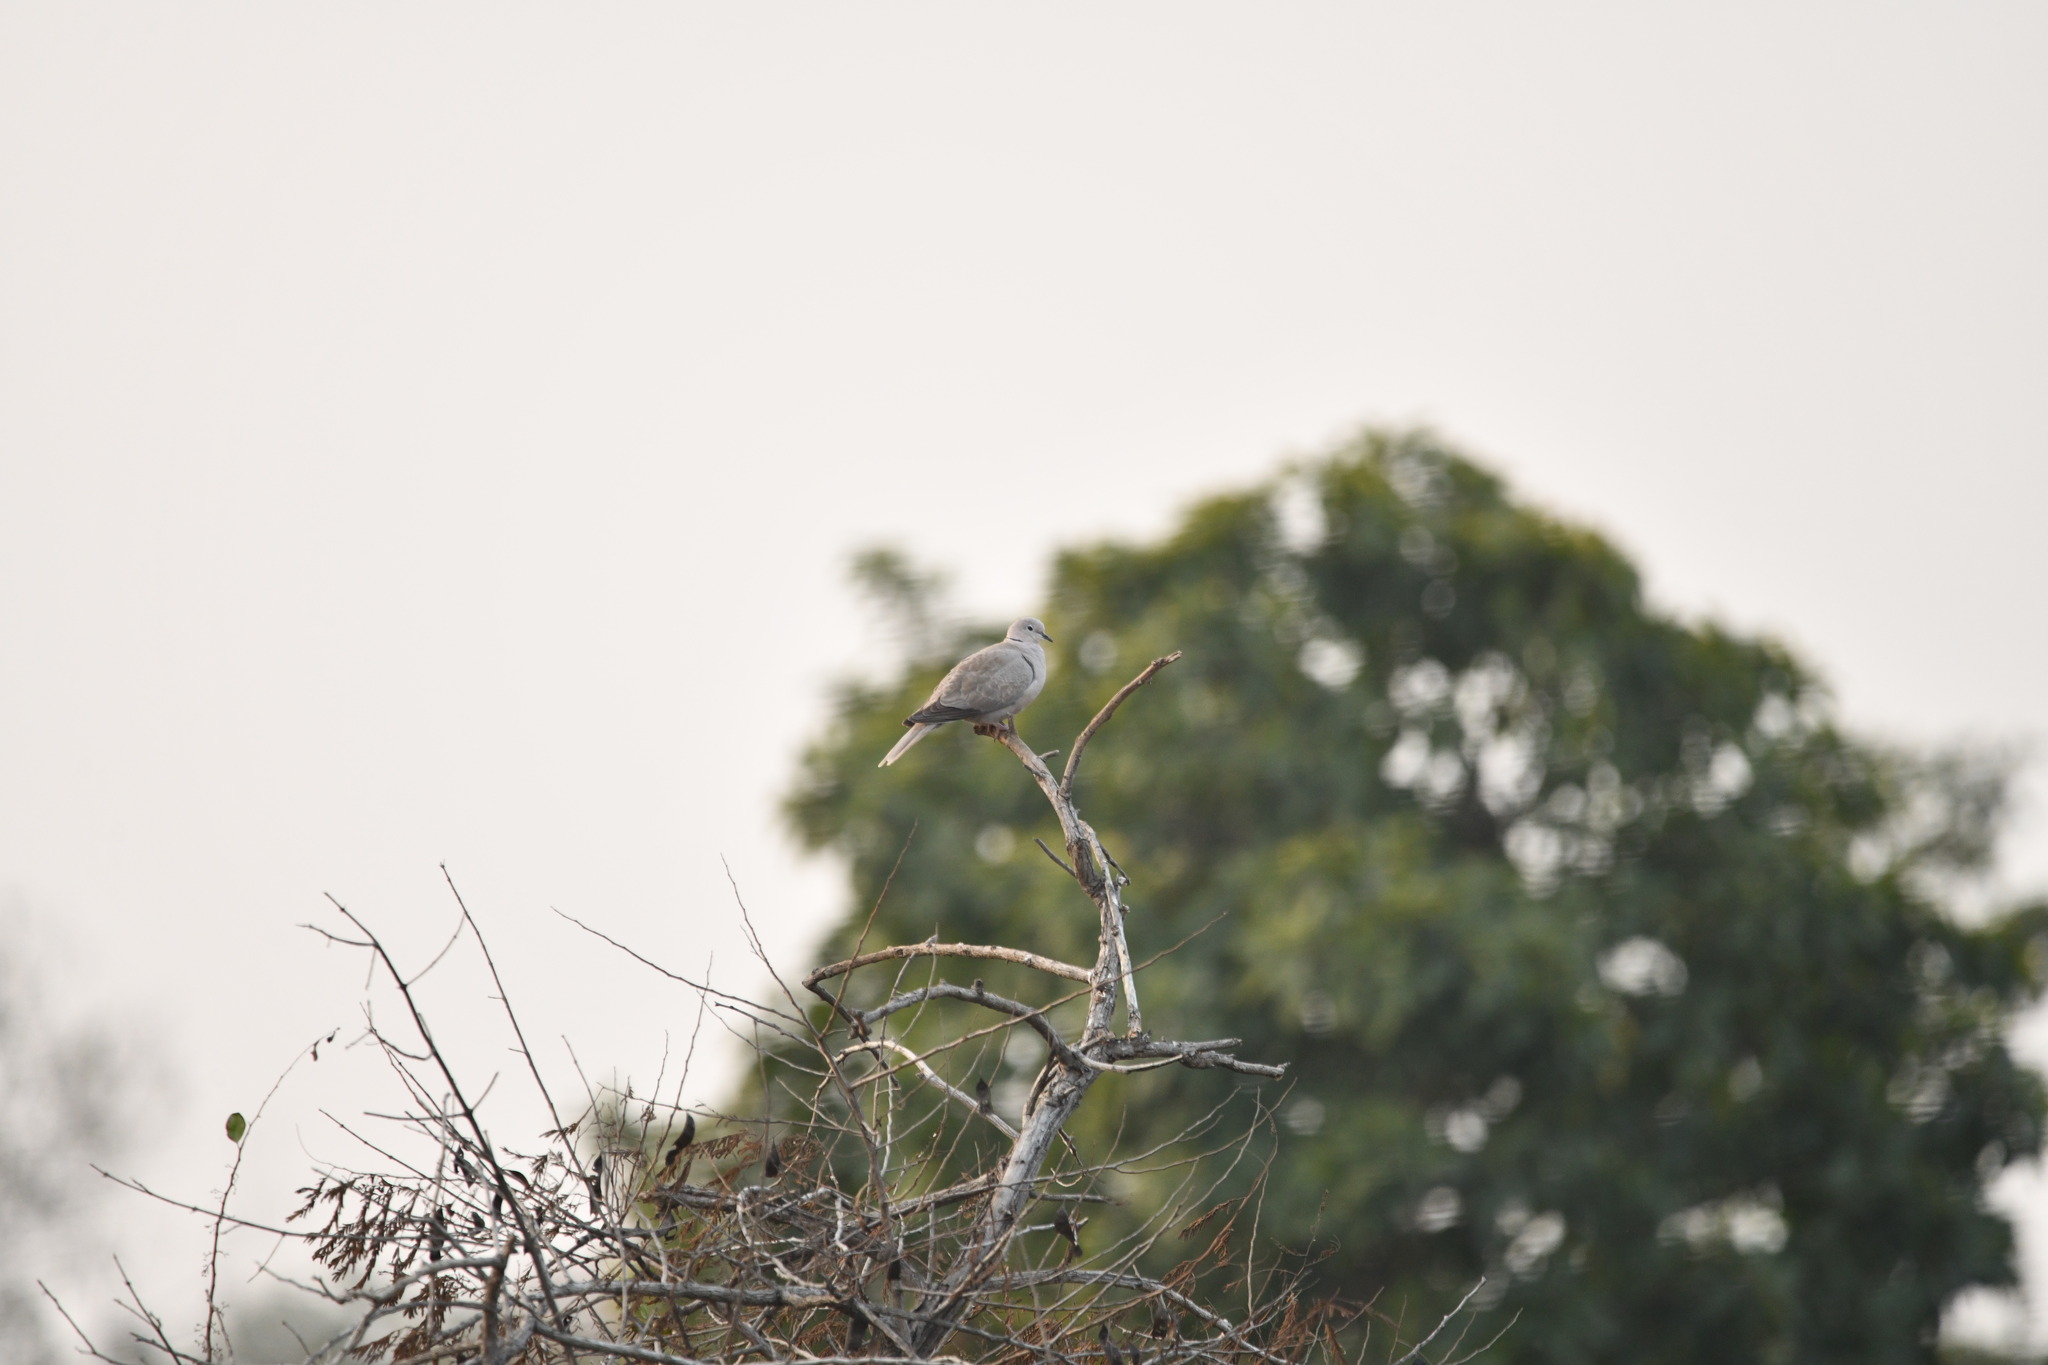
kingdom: Animalia
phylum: Chordata
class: Aves
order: Columbiformes
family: Columbidae
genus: Streptopelia
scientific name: Streptopelia decaocto
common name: Eurasian collared dove
